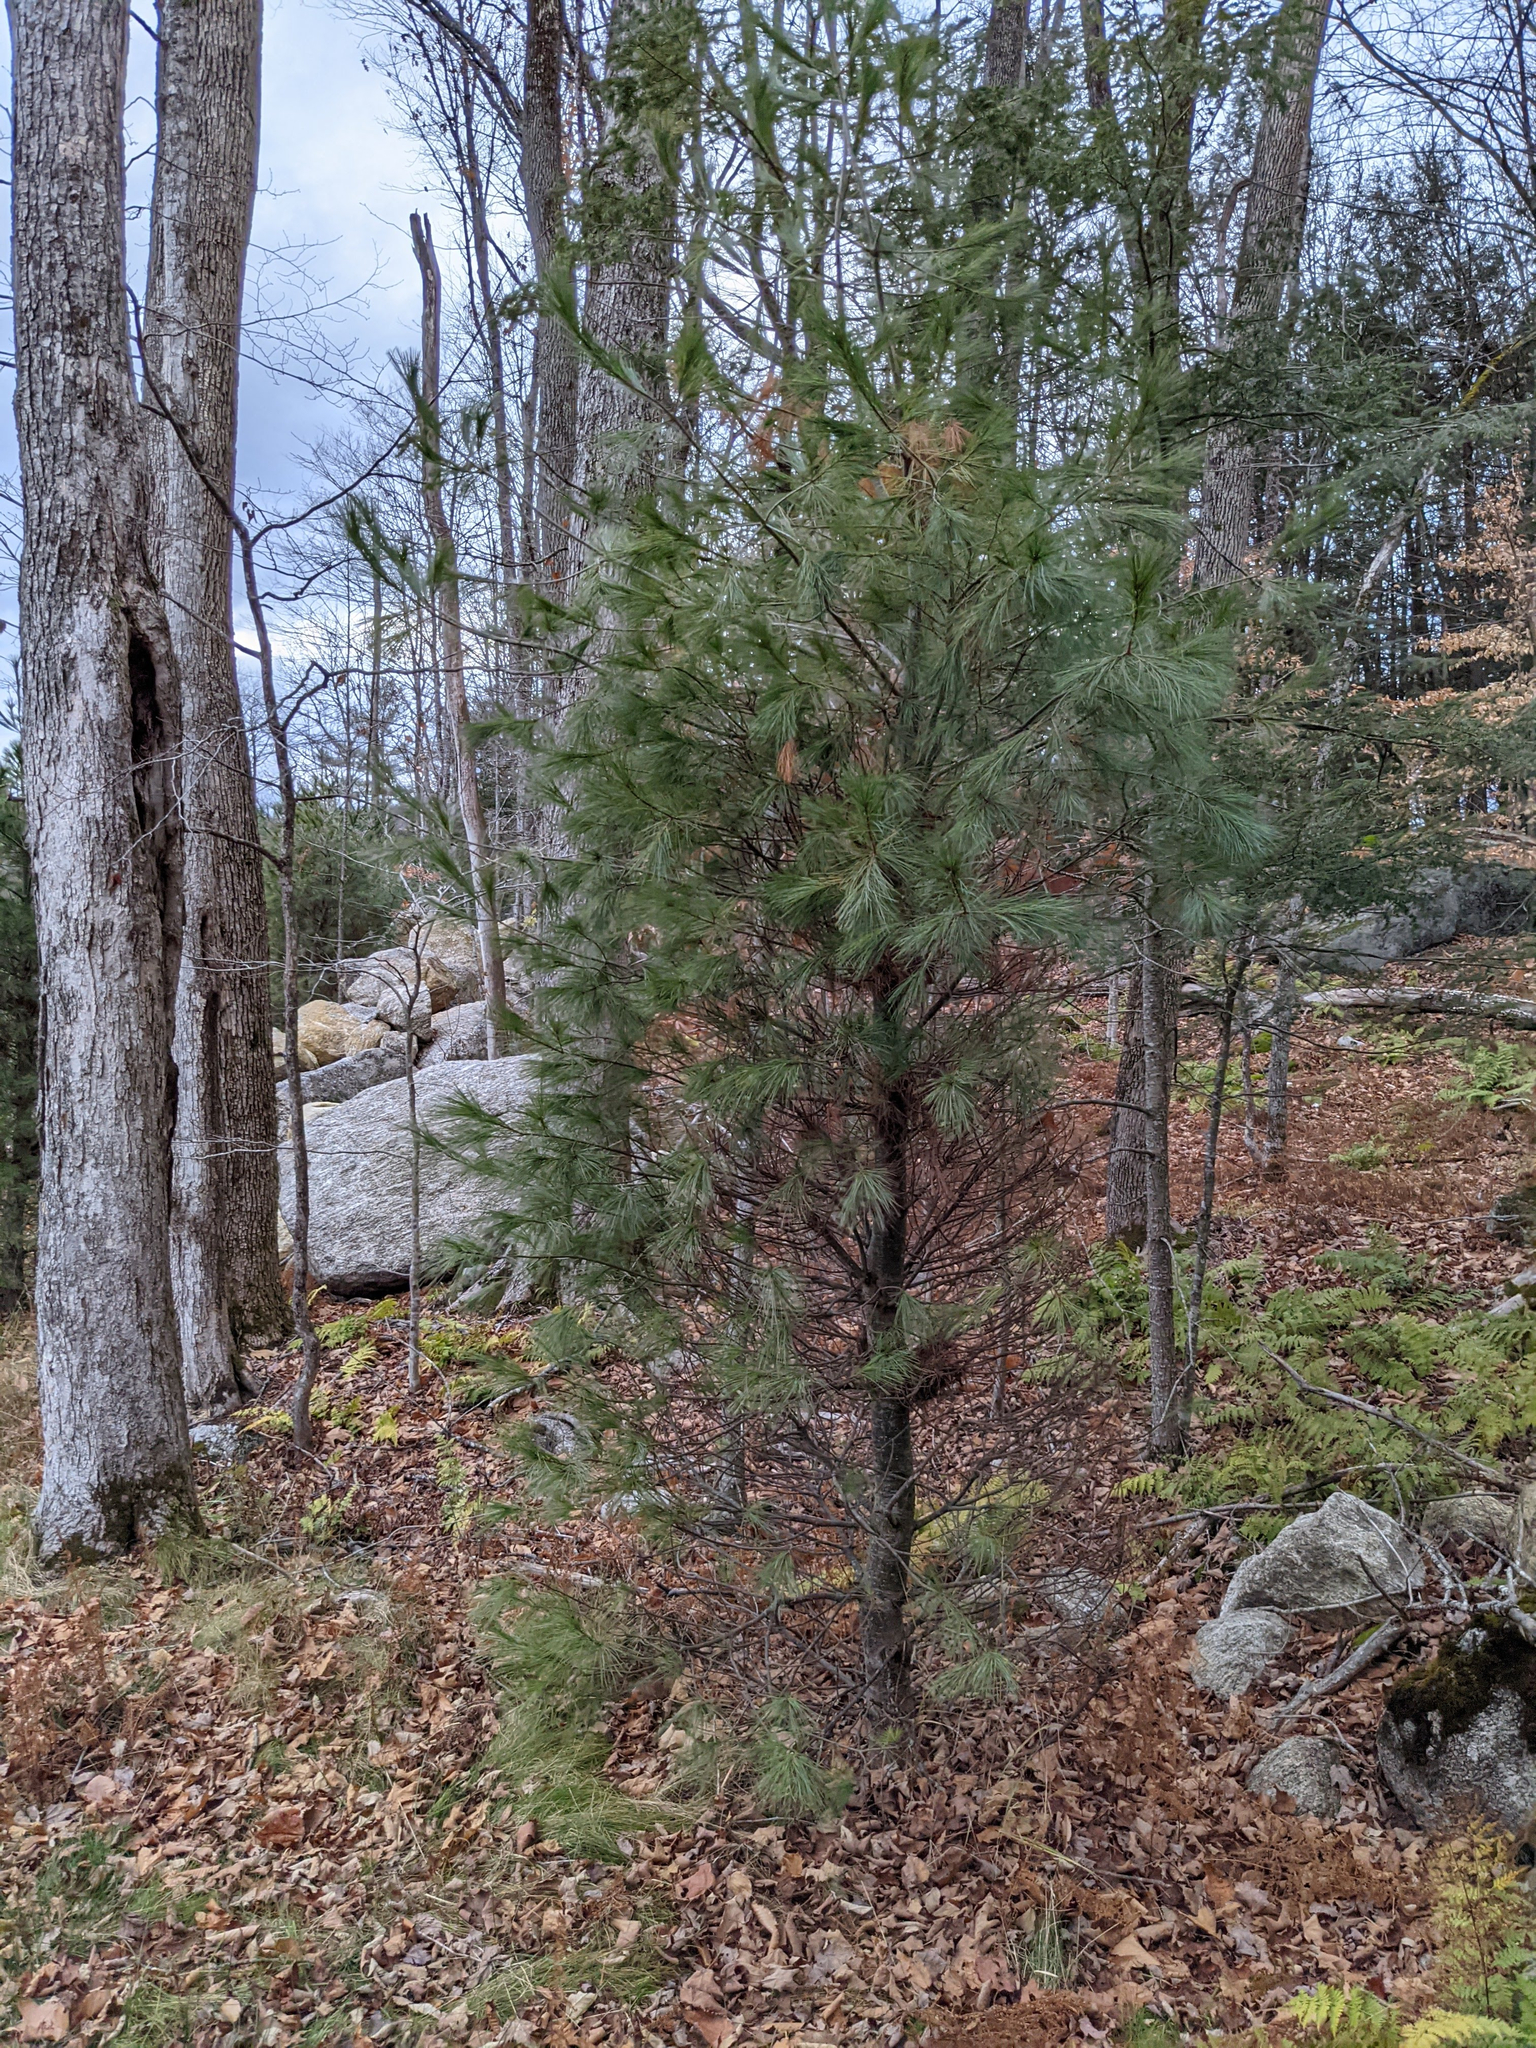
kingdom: Plantae
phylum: Tracheophyta
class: Pinopsida
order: Pinales
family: Pinaceae
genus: Pinus
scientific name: Pinus strobus
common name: Weymouth pine
